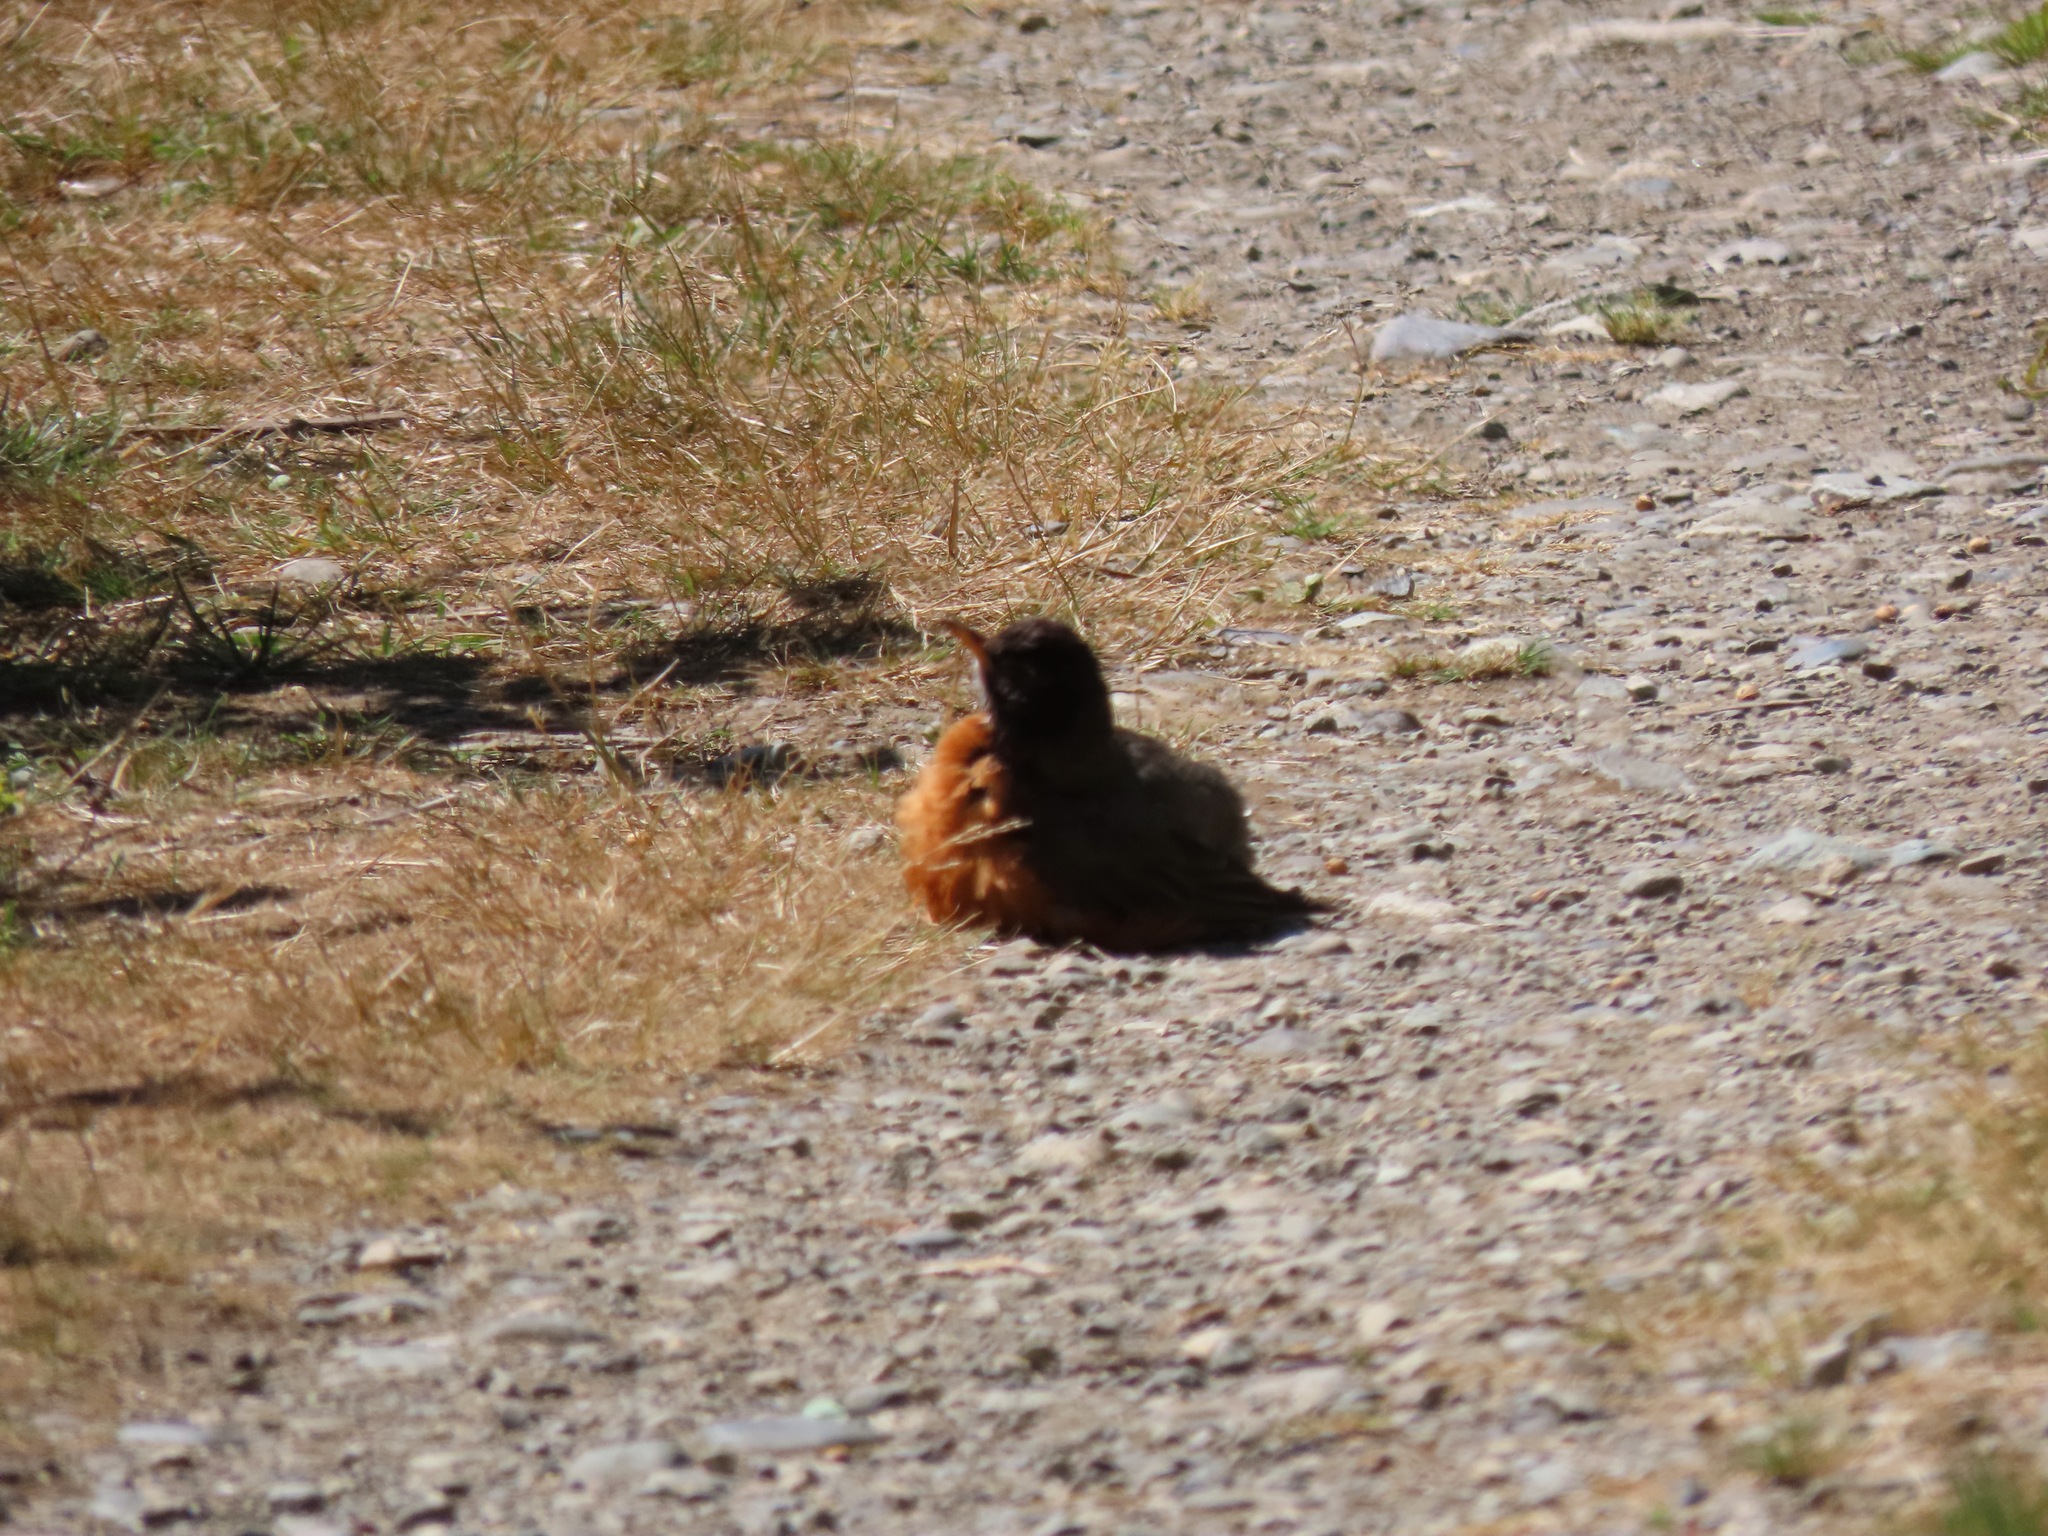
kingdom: Animalia
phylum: Chordata
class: Aves
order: Passeriformes
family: Turdidae
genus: Turdus
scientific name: Turdus migratorius
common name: American robin
